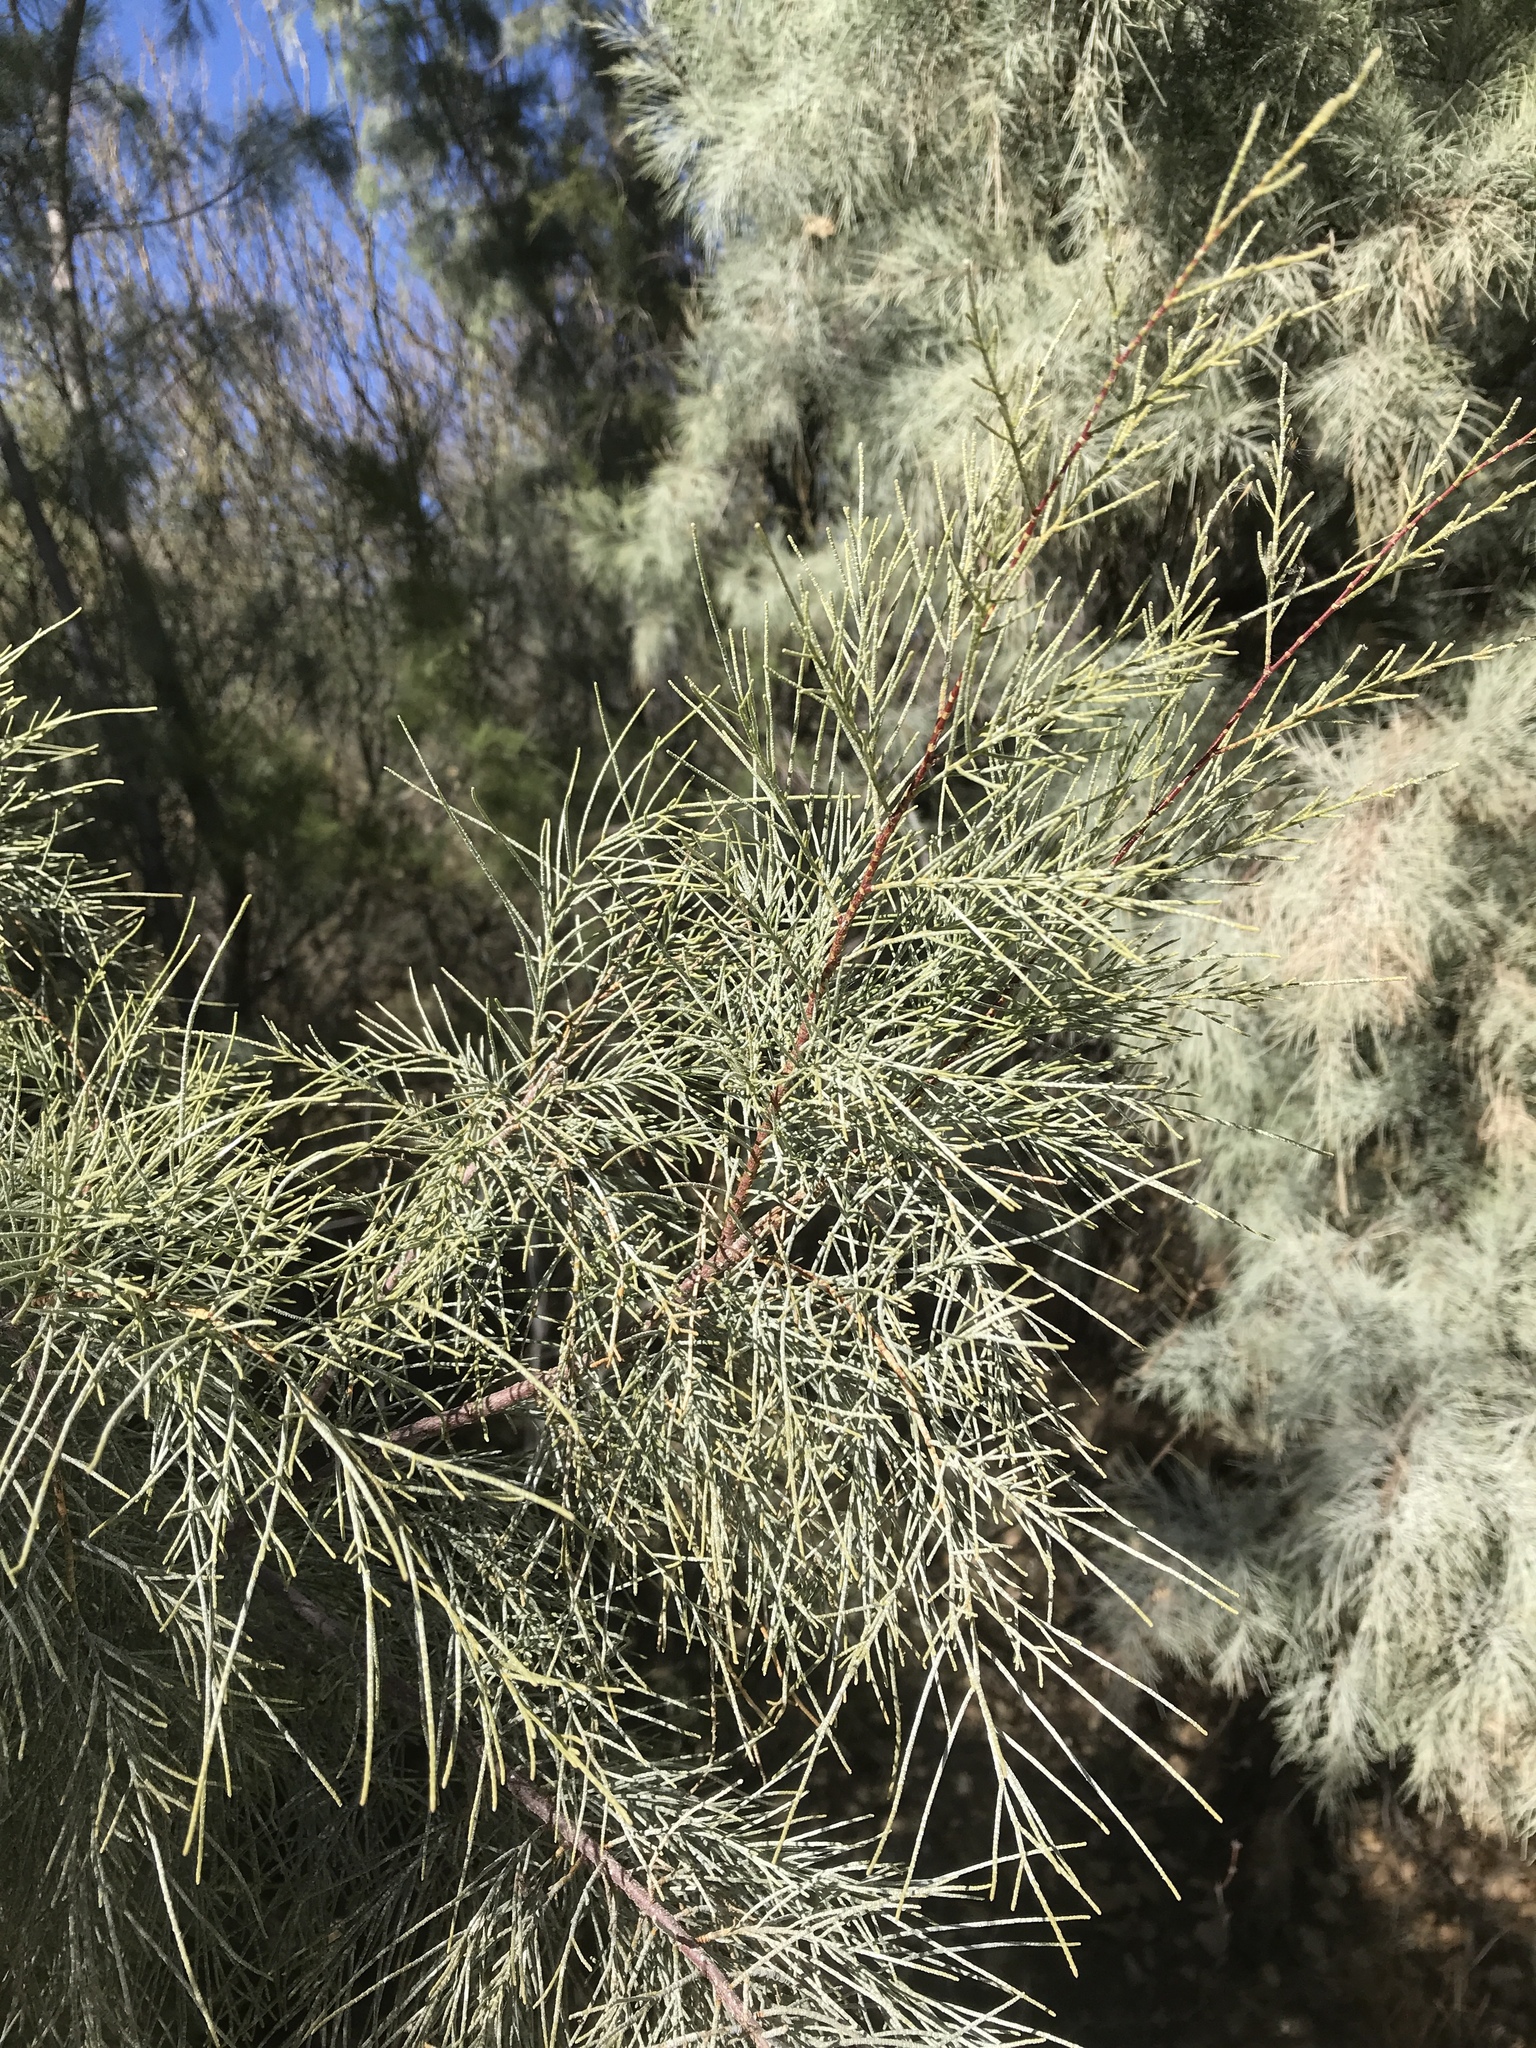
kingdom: Plantae
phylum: Tracheophyta
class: Magnoliopsida
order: Caryophyllales
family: Tamaricaceae
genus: Tamarix
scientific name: Tamarix aphylla
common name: Athel tamarisk
